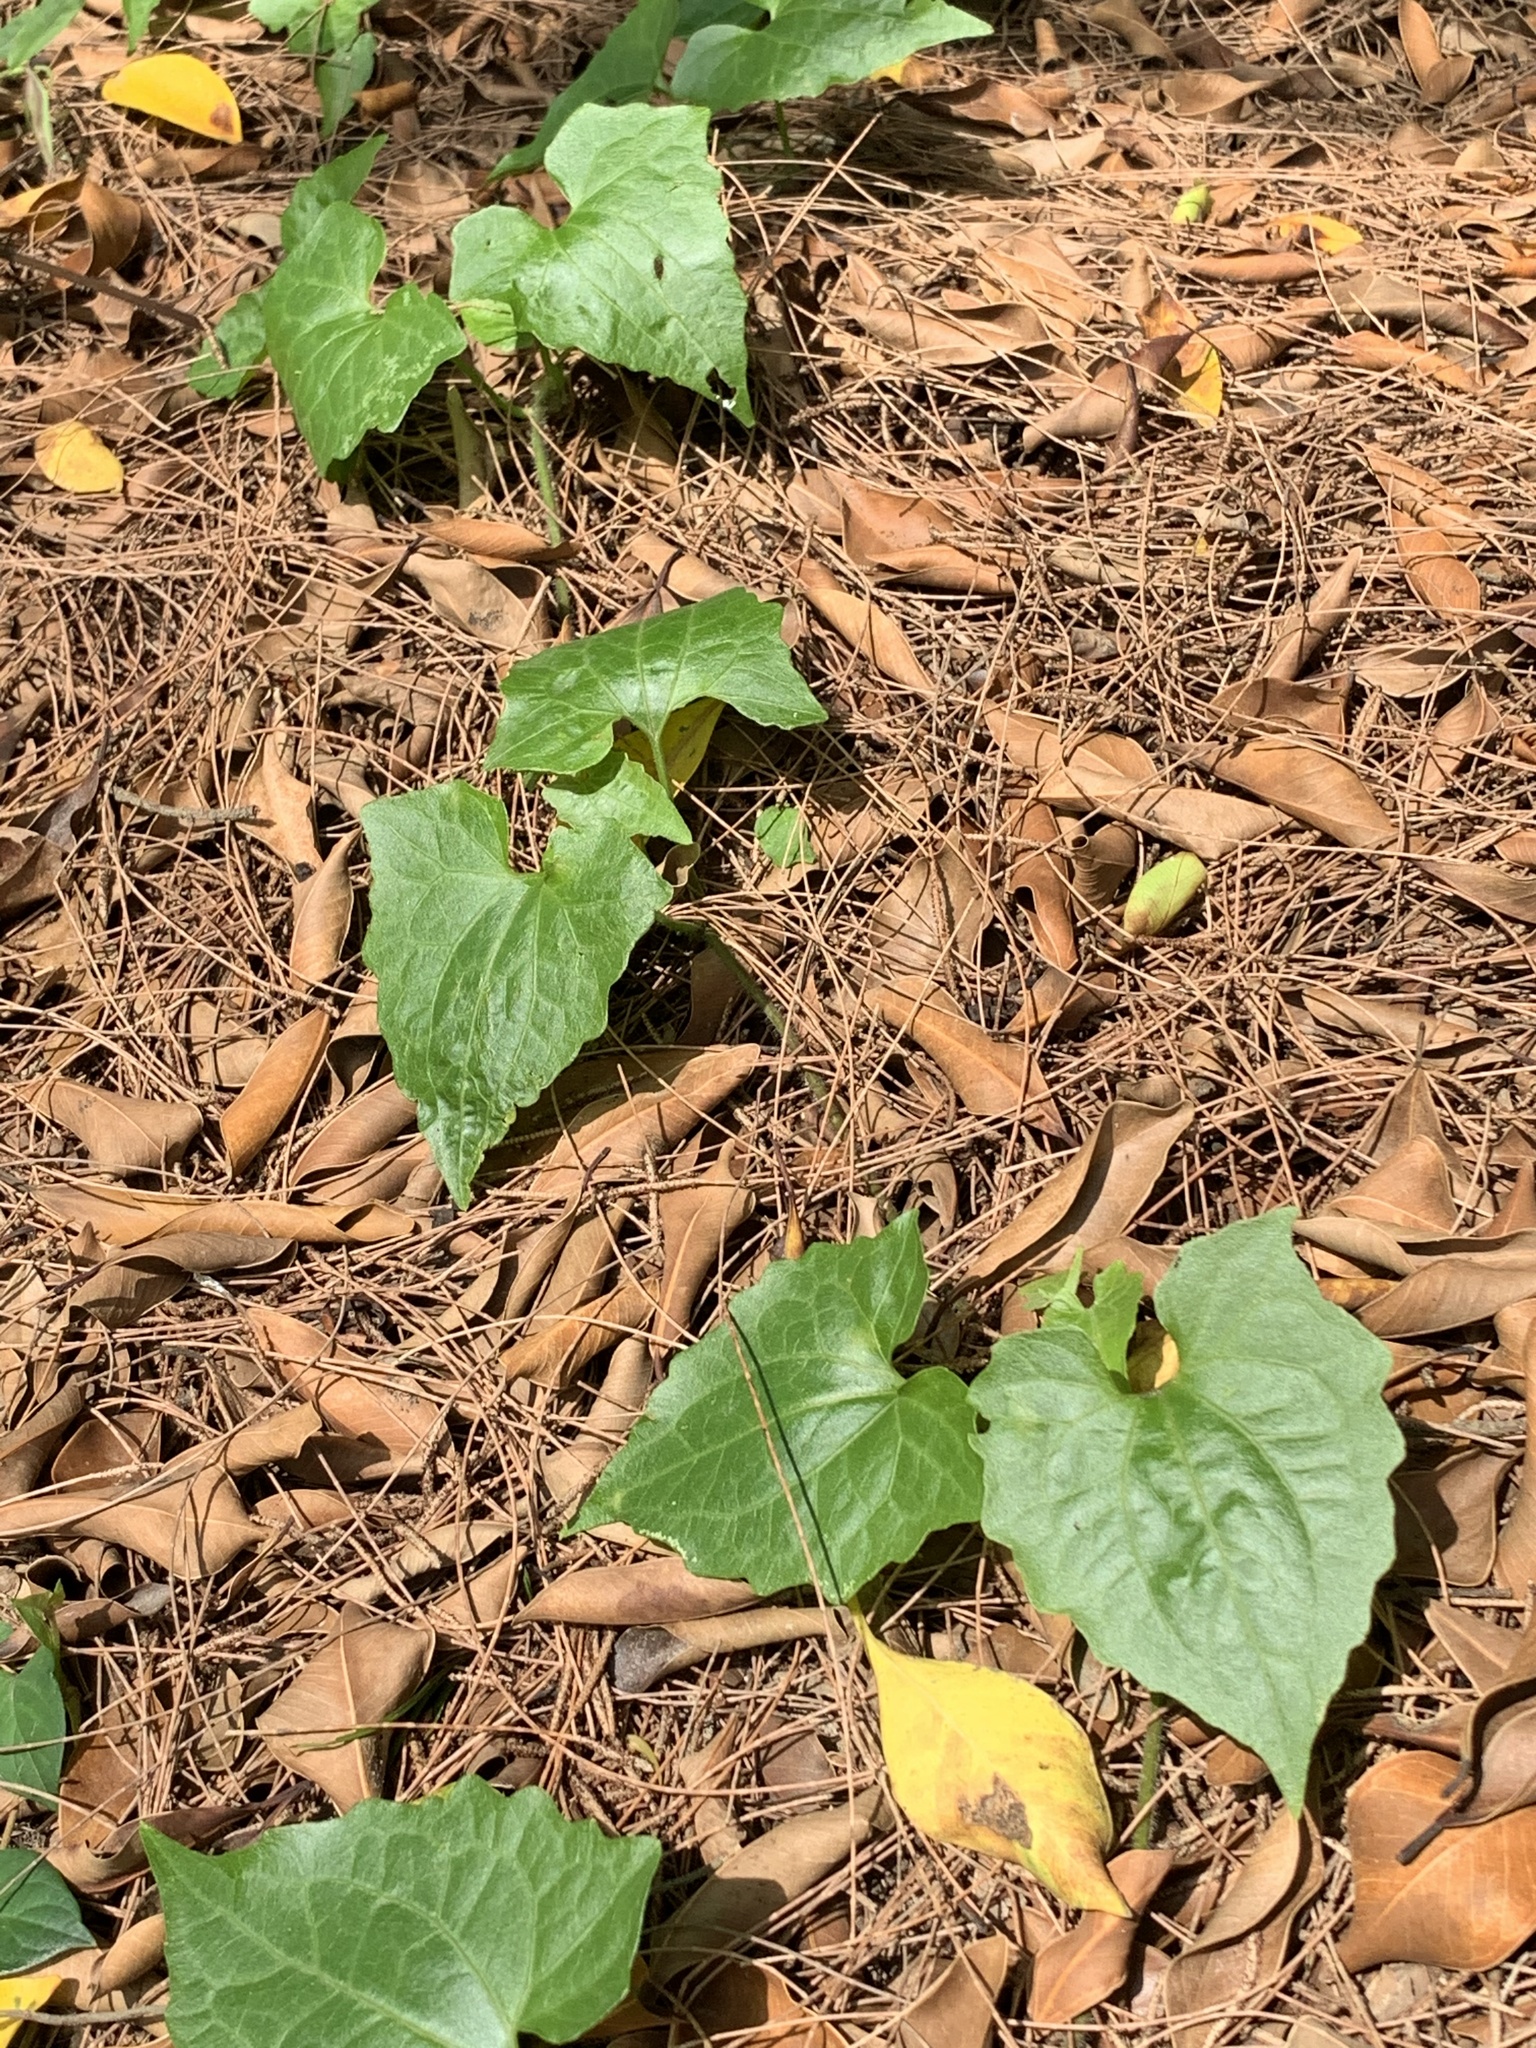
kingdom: Plantae
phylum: Tracheophyta
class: Magnoliopsida
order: Asterales
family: Asteraceae
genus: Mikania
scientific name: Mikania micrantha
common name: Mile-a-minute
